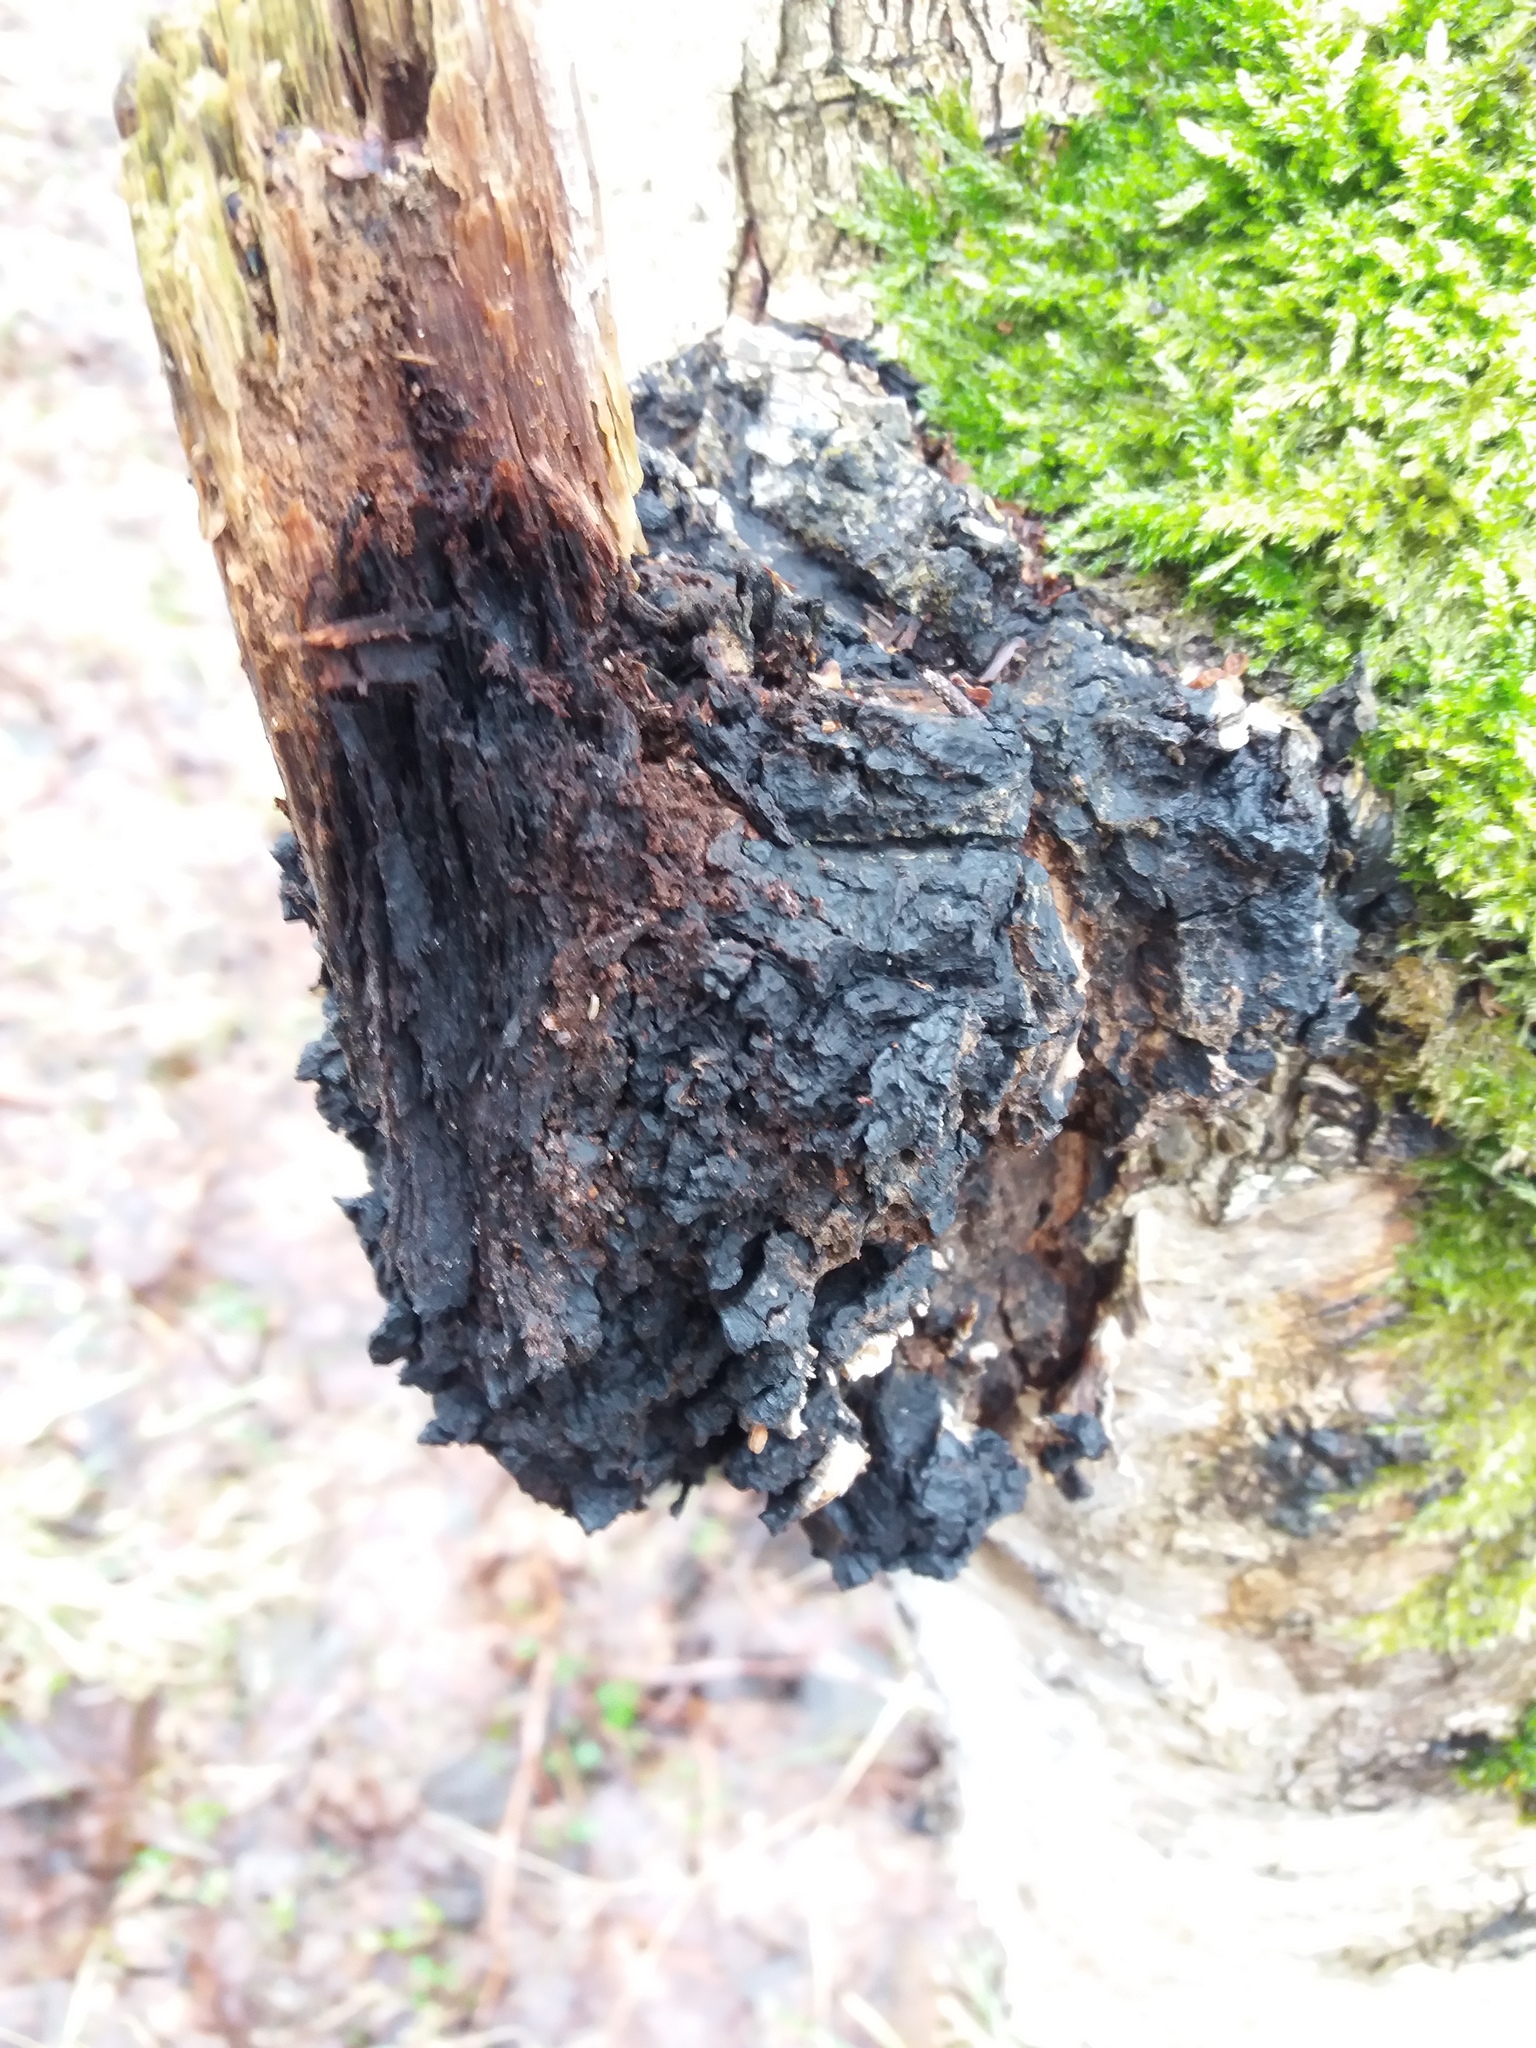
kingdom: Fungi
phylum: Basidiomycota
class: Agaricomycetes
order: Hymenochaetales
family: Hymenochaetaceae
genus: Inonotus
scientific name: Inonotus obliquus
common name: Chaga
